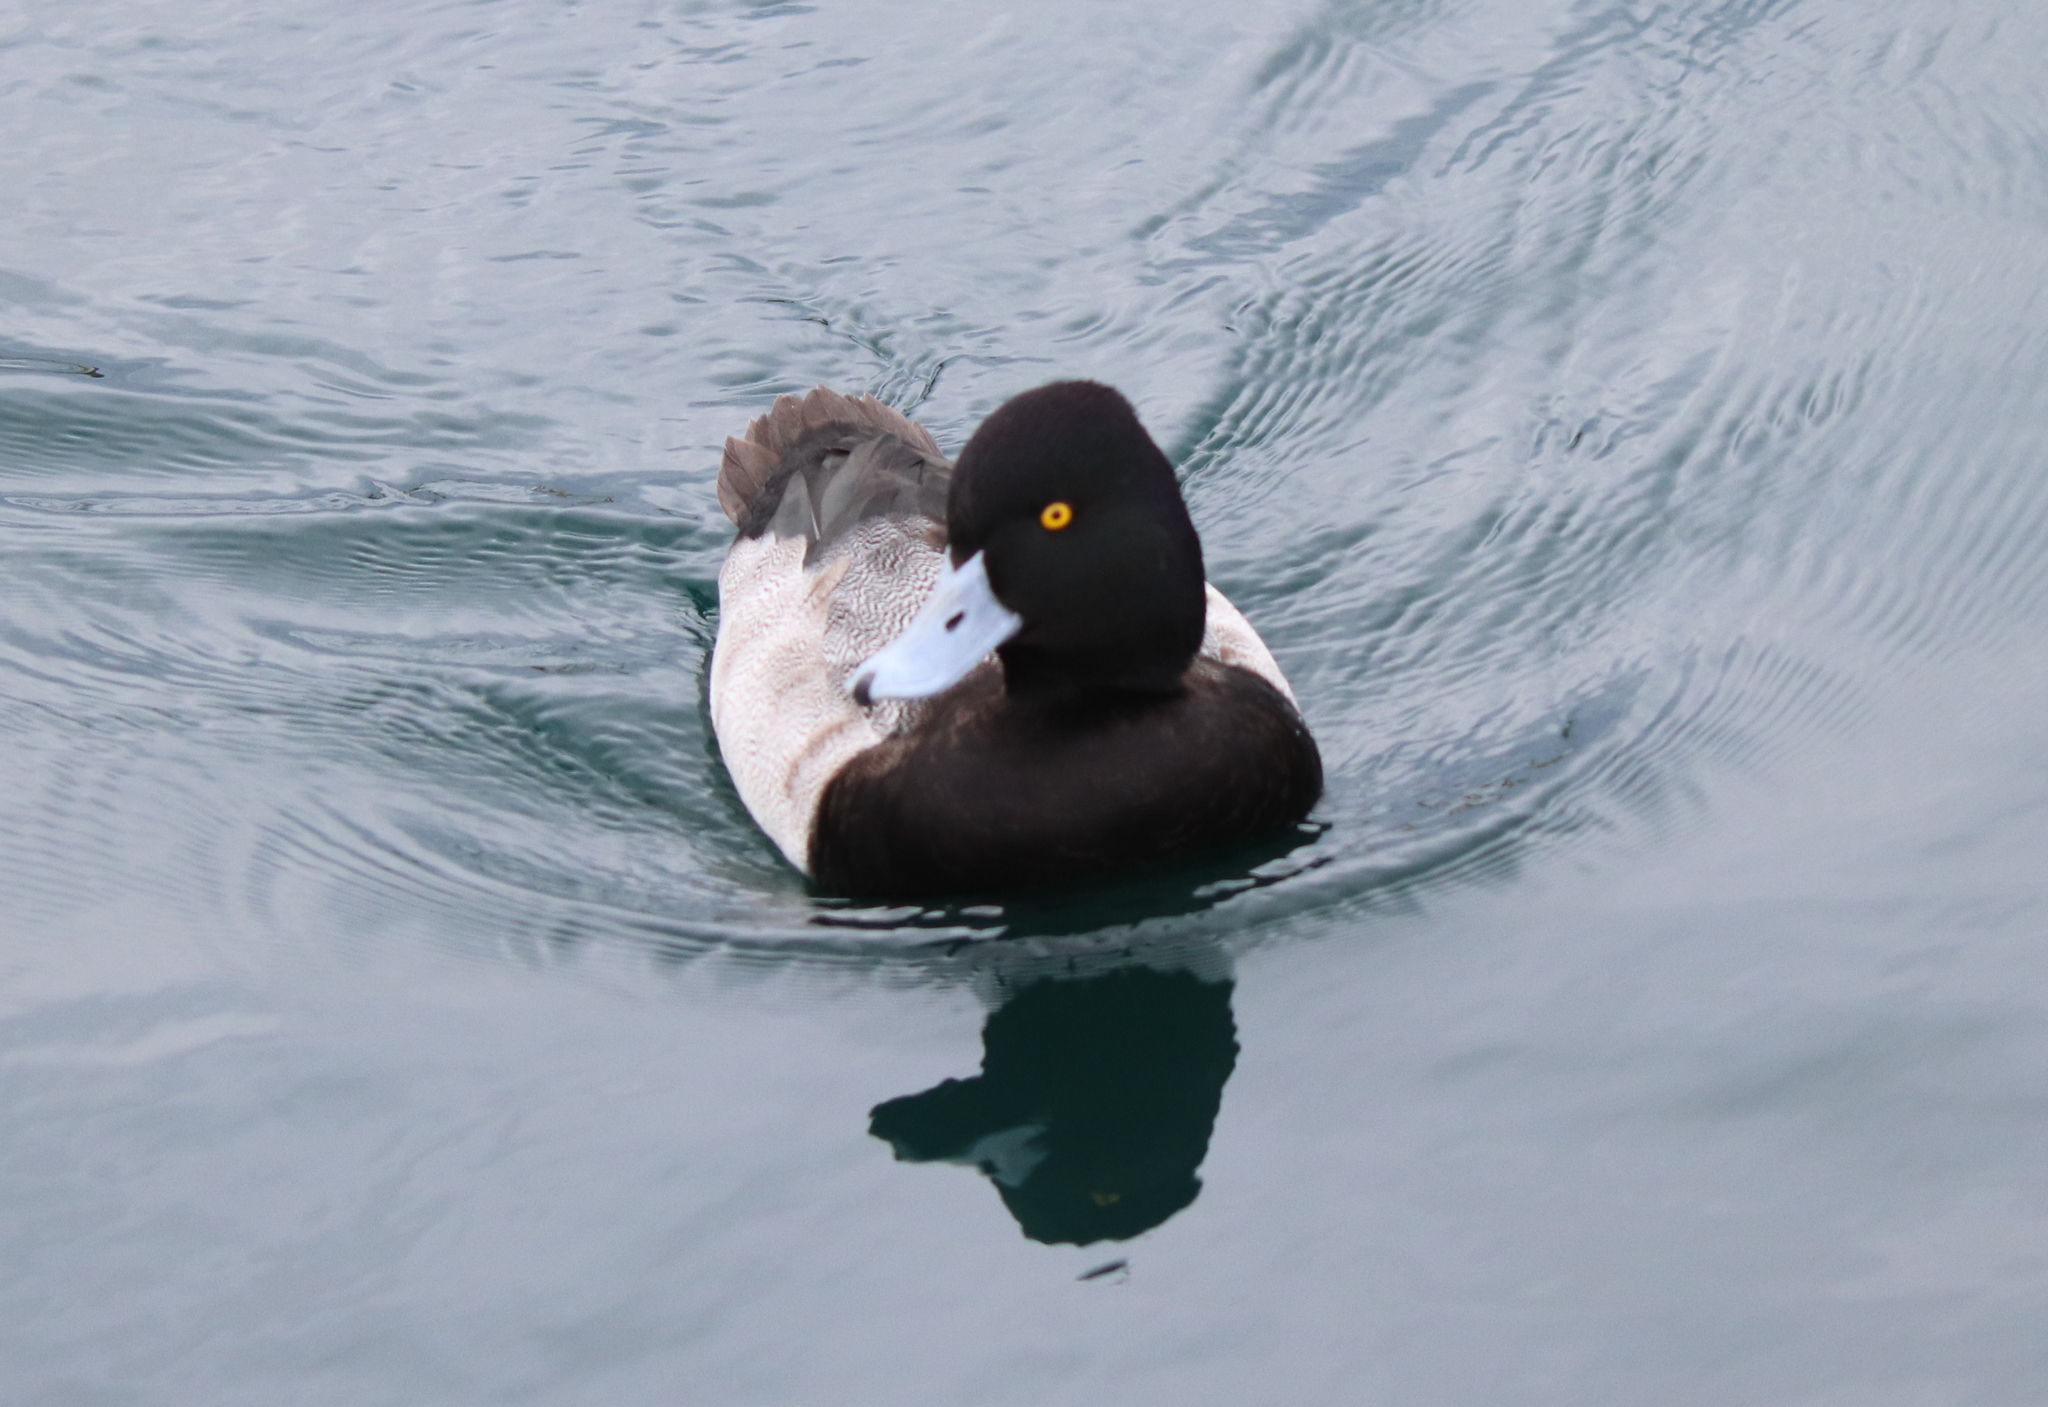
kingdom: Animalia
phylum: Chordata
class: Aves
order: Anseriformes
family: Anatidae
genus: Aythya
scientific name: Aythya affinis
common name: Lesser scaup
